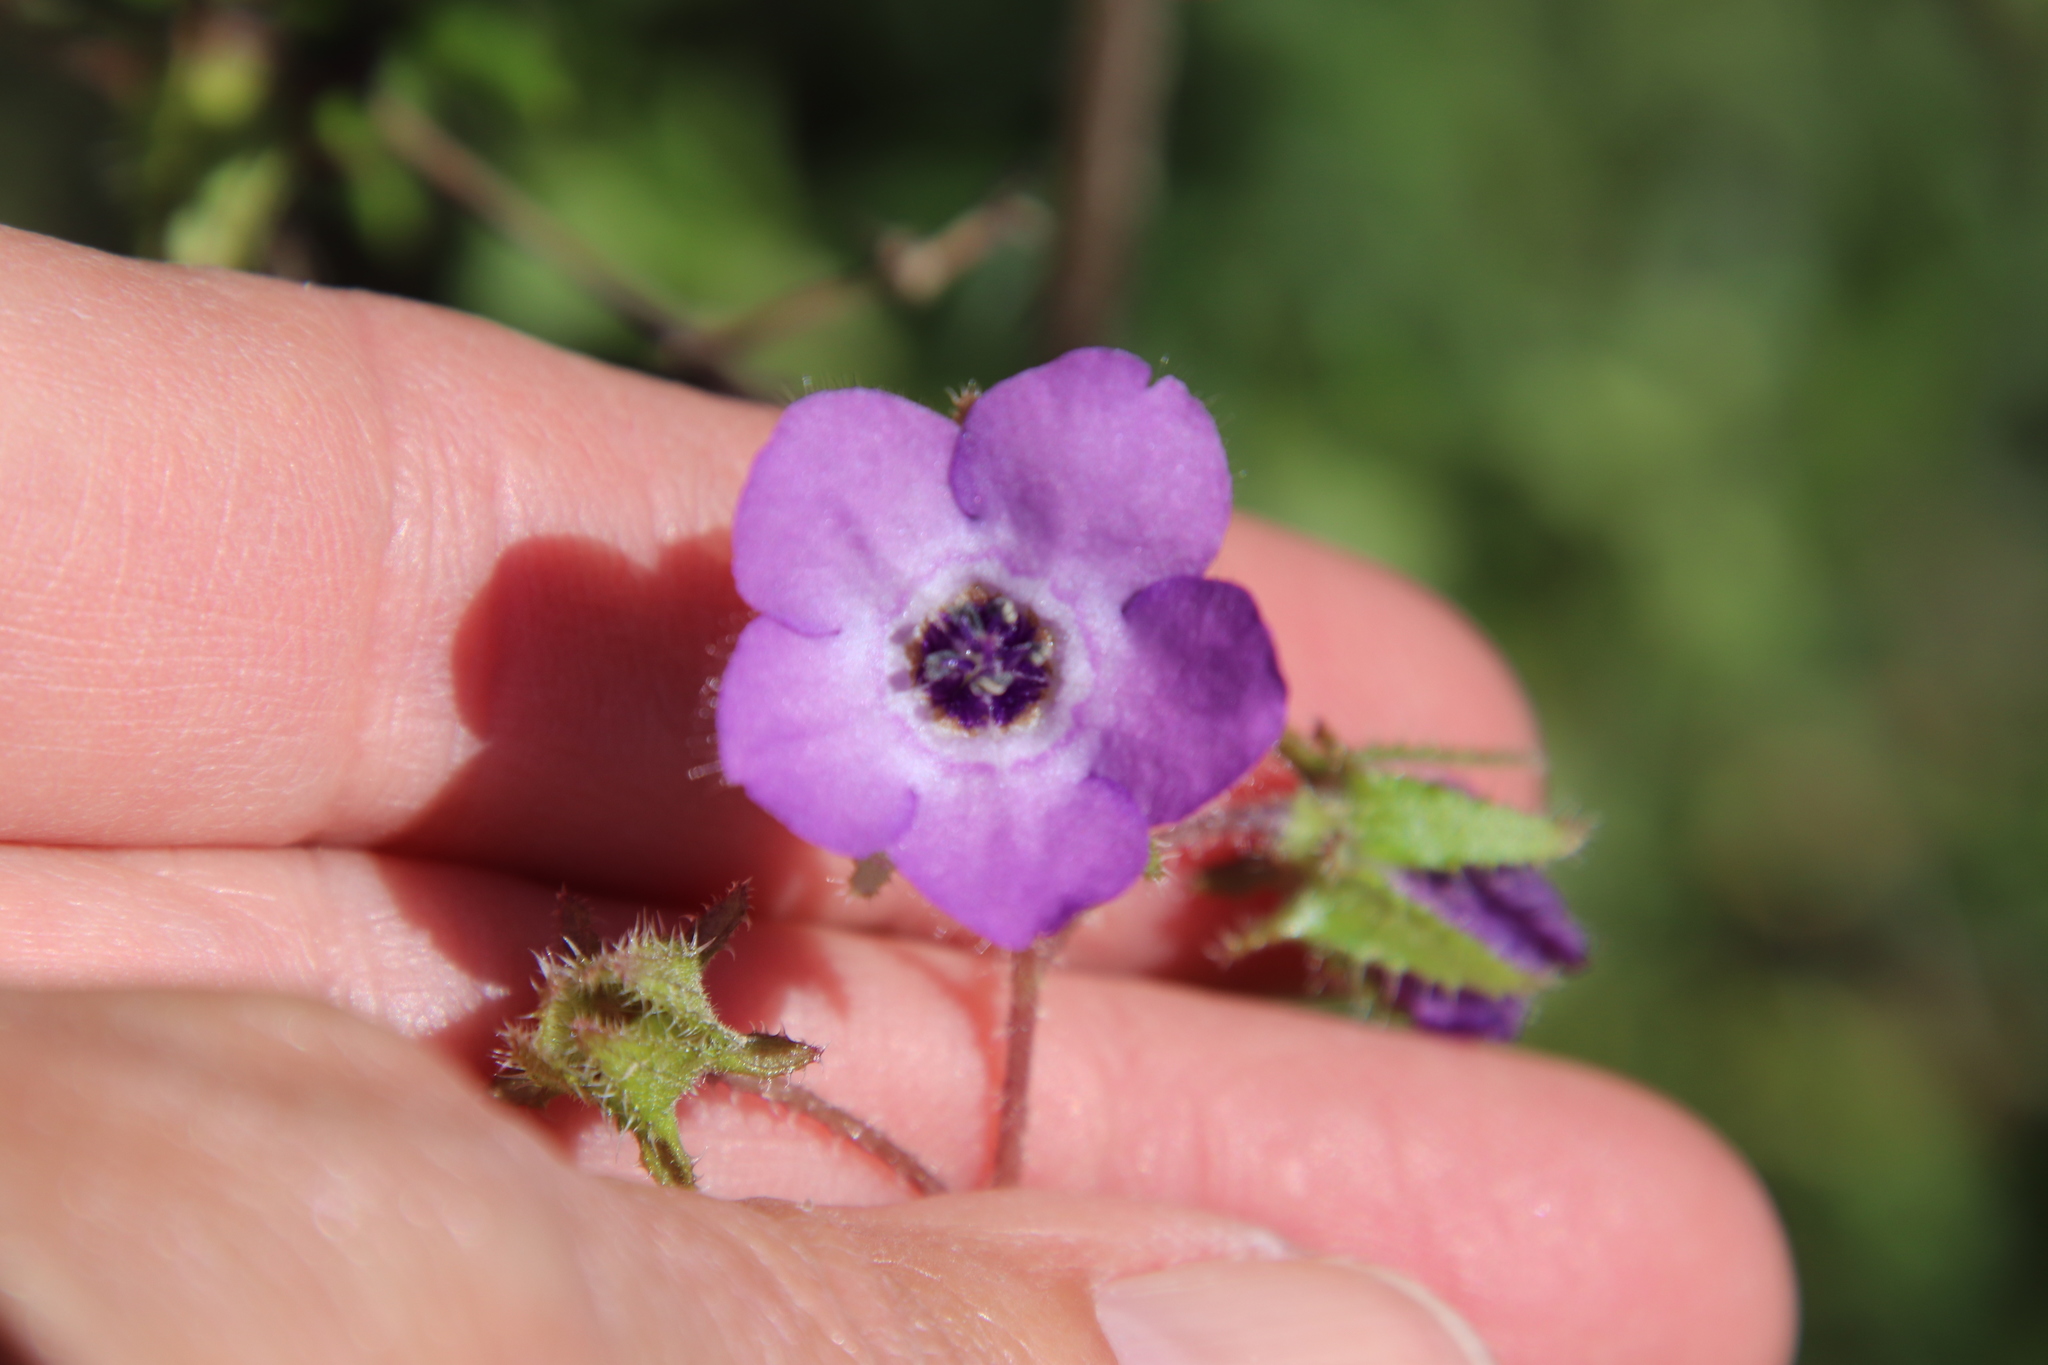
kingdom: Plantae
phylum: Tracheophyta
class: Magnoliopsida
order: Boraginales
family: Hydrophyllaceae
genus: Pholistoma
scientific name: Pholistoma auritum
